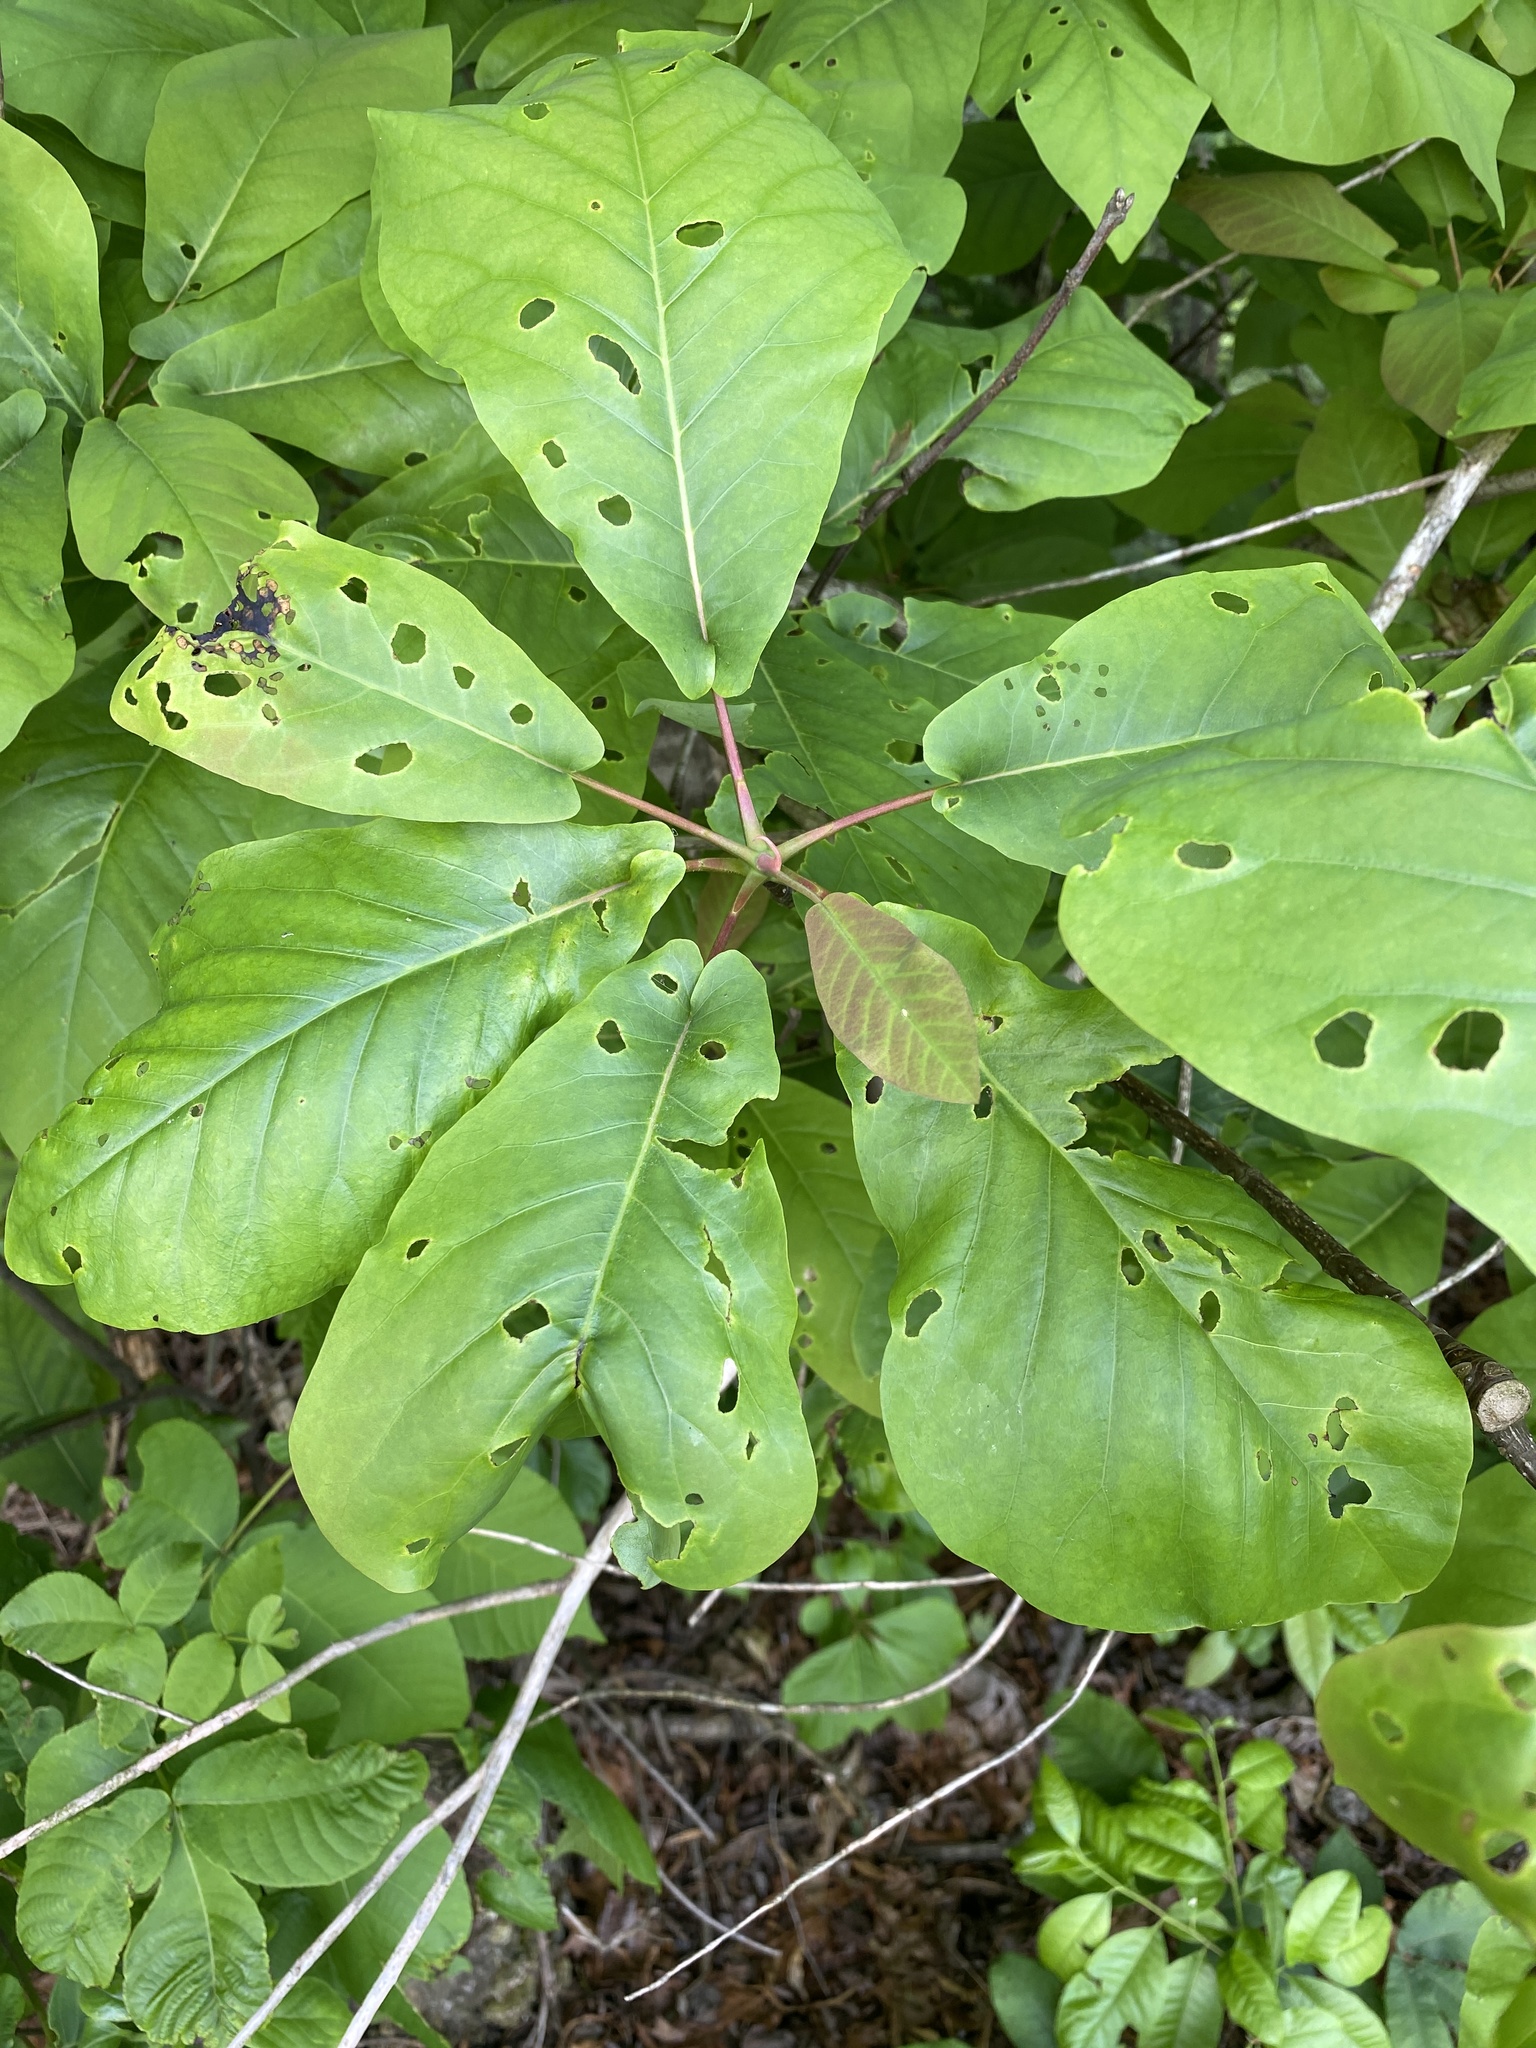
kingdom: Plantae
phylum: Tracheophyta
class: Magnoliopsida
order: Magnoliales
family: Magnoliaceae
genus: Magnolia
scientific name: Magnolia fraseri
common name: Fraser's magnolia
